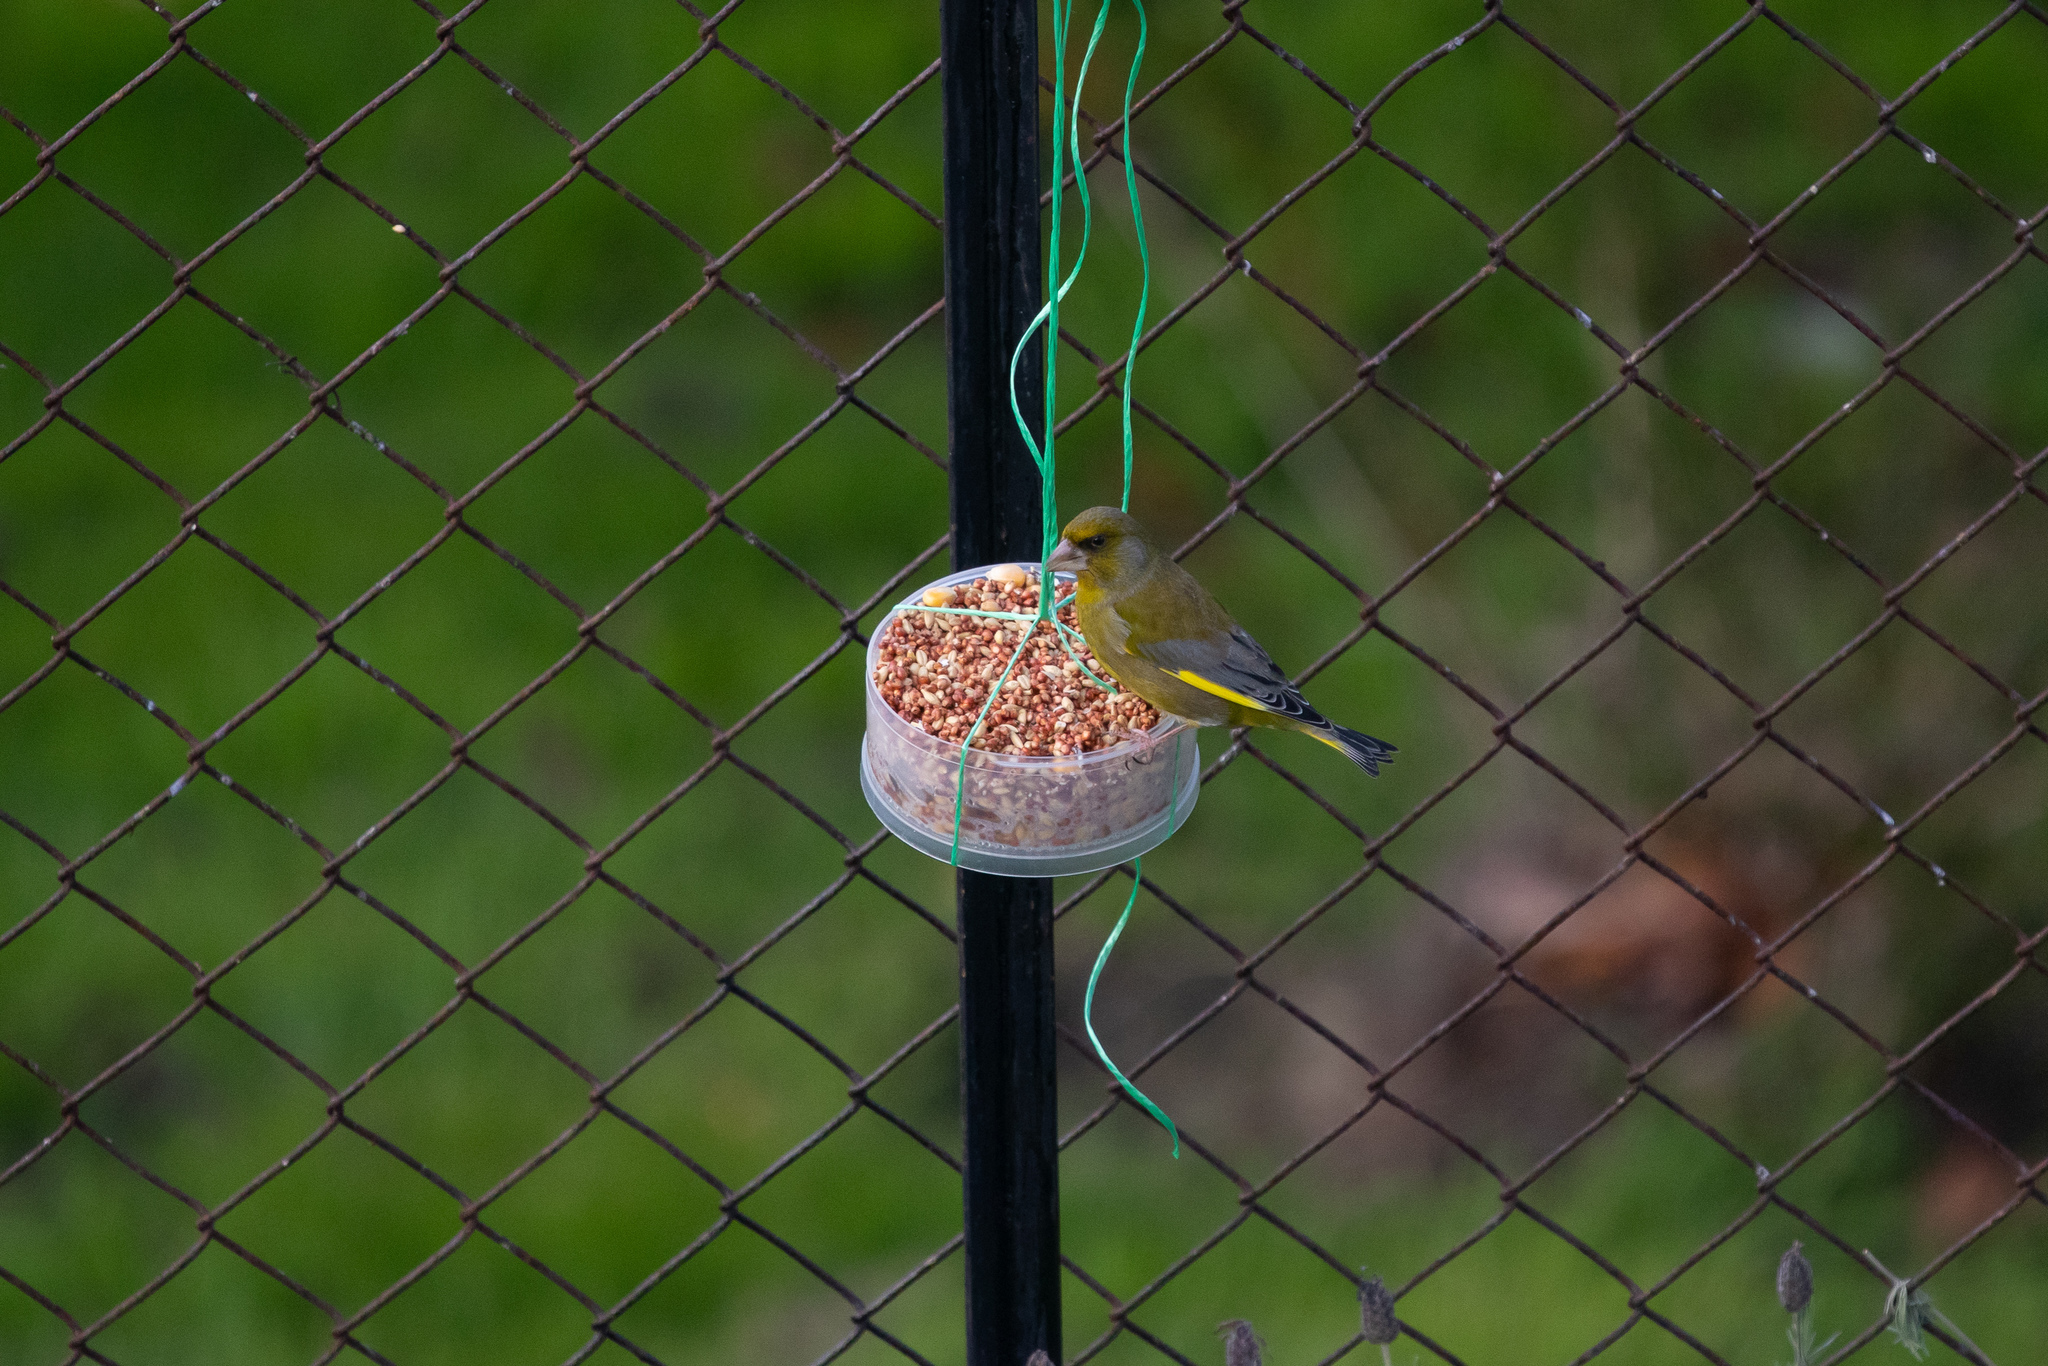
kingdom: Plantae
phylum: Tracheophyta
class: Liliopsida
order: Poales
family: Poaceae
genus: Chloris
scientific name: Chloris chloris
